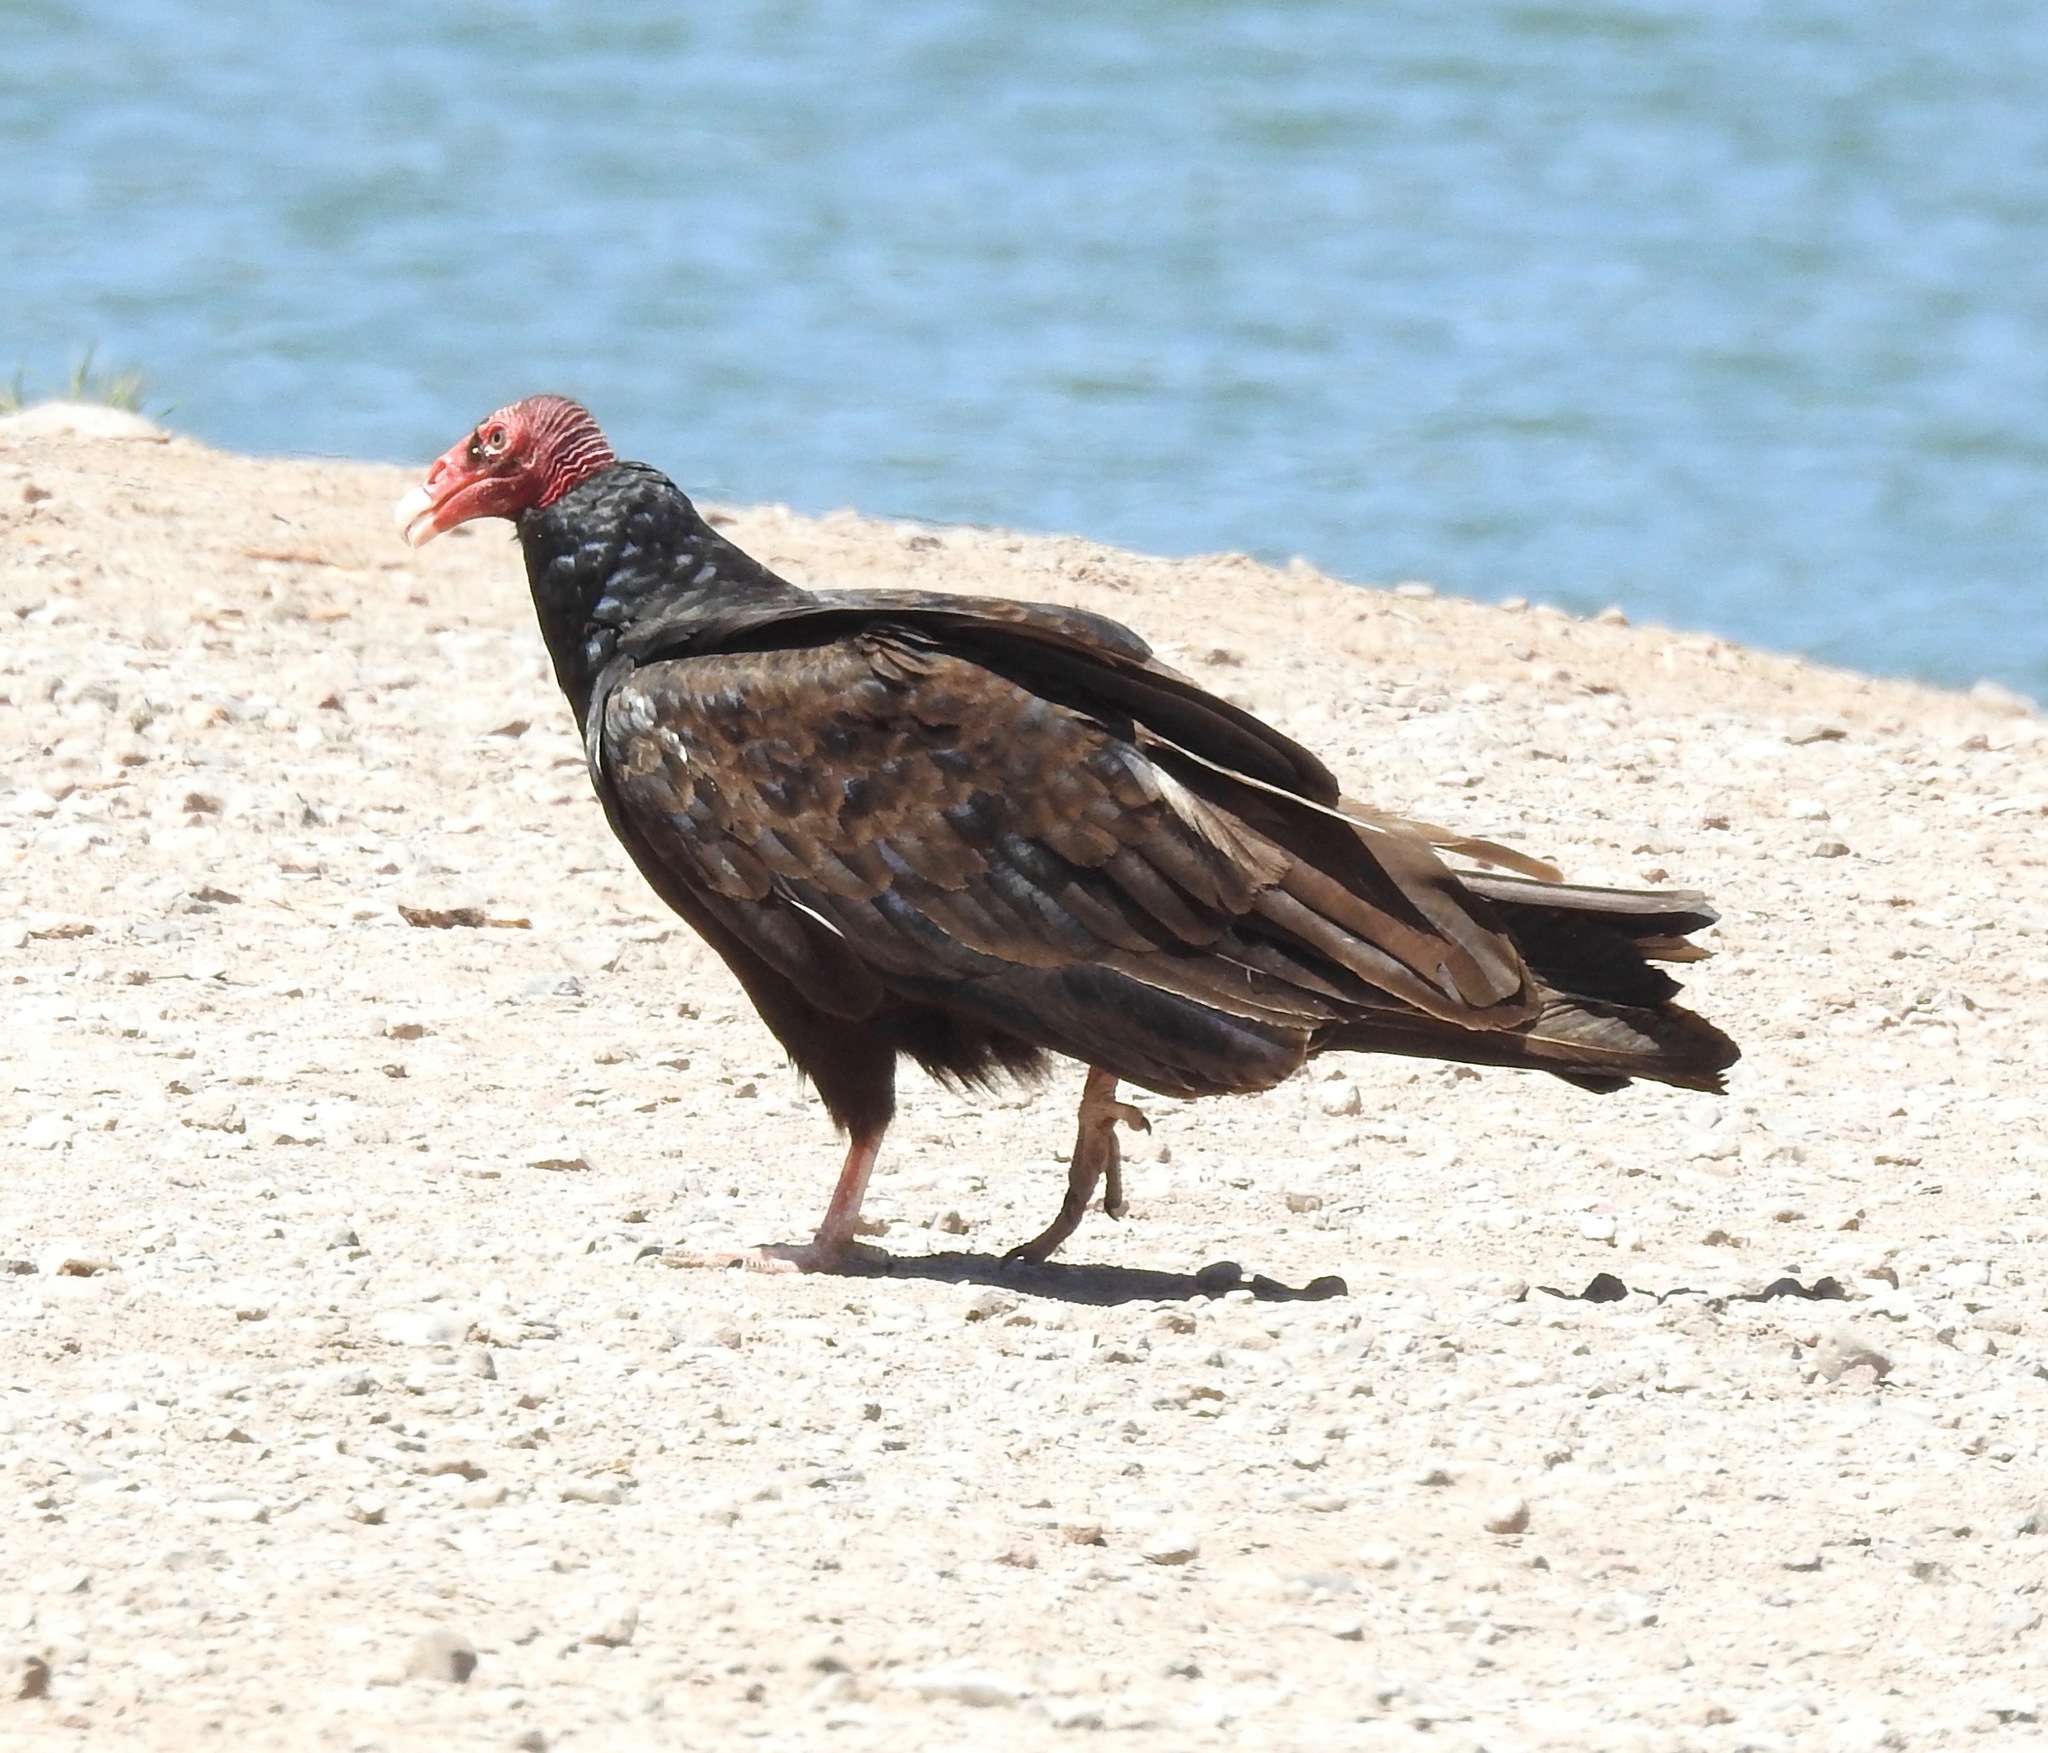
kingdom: Animalia
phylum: Chordata
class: Aves
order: Accipitriformes
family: Cathartidae
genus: Cathartes
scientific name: Cathartes aura
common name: Turkey vulture
